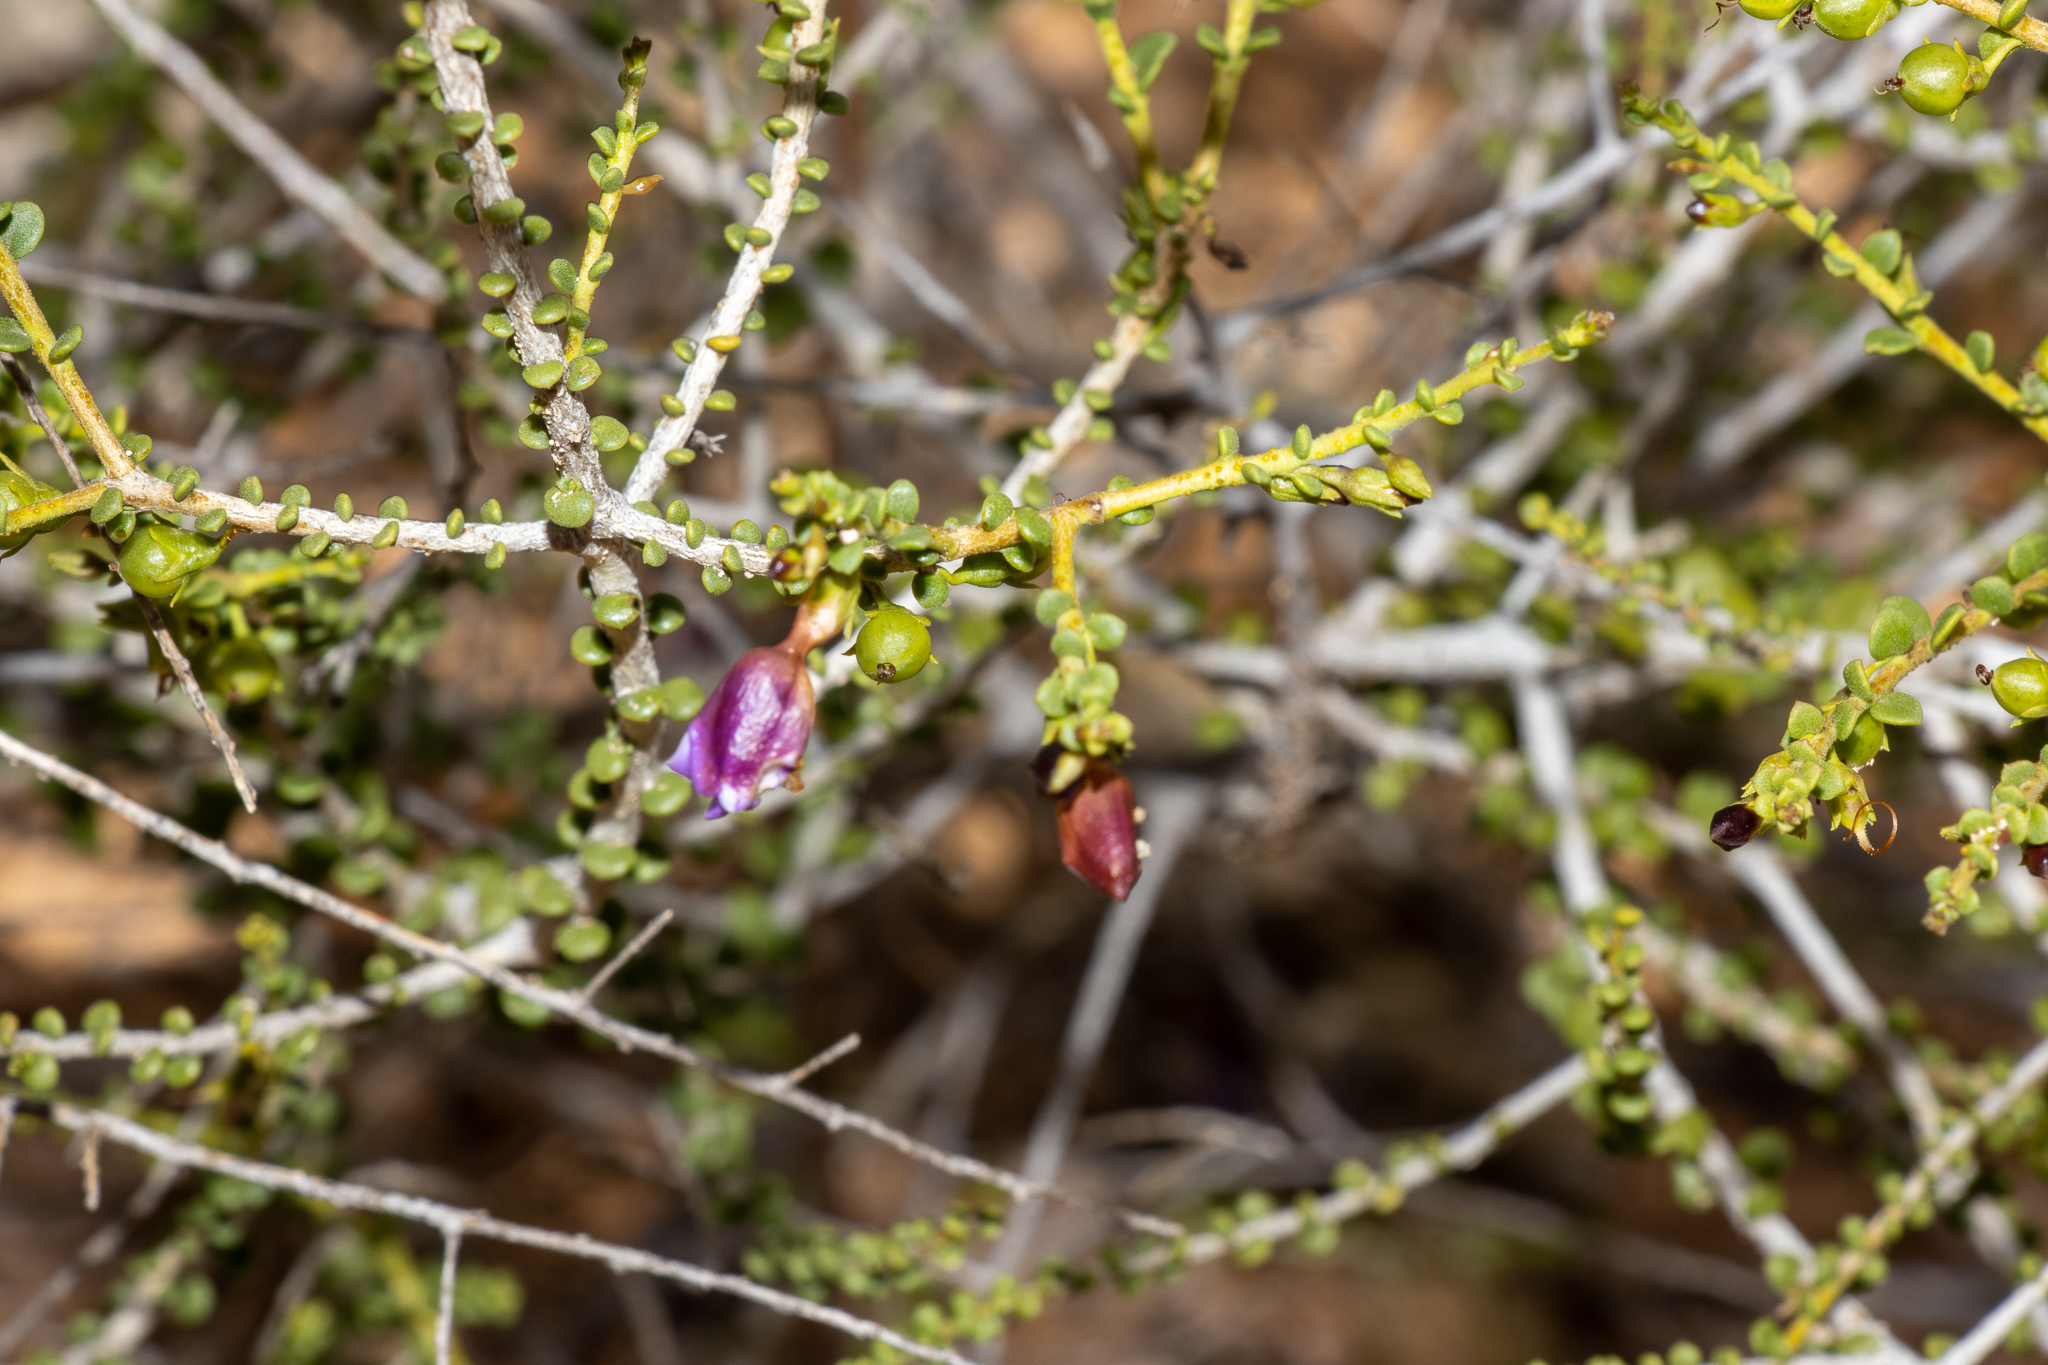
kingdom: Plantae
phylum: Tracheophyta
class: Magnoliopsida
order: Lamiales
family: Scrophulariaceae
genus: Eremophila
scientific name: Eremophila parvifolia
